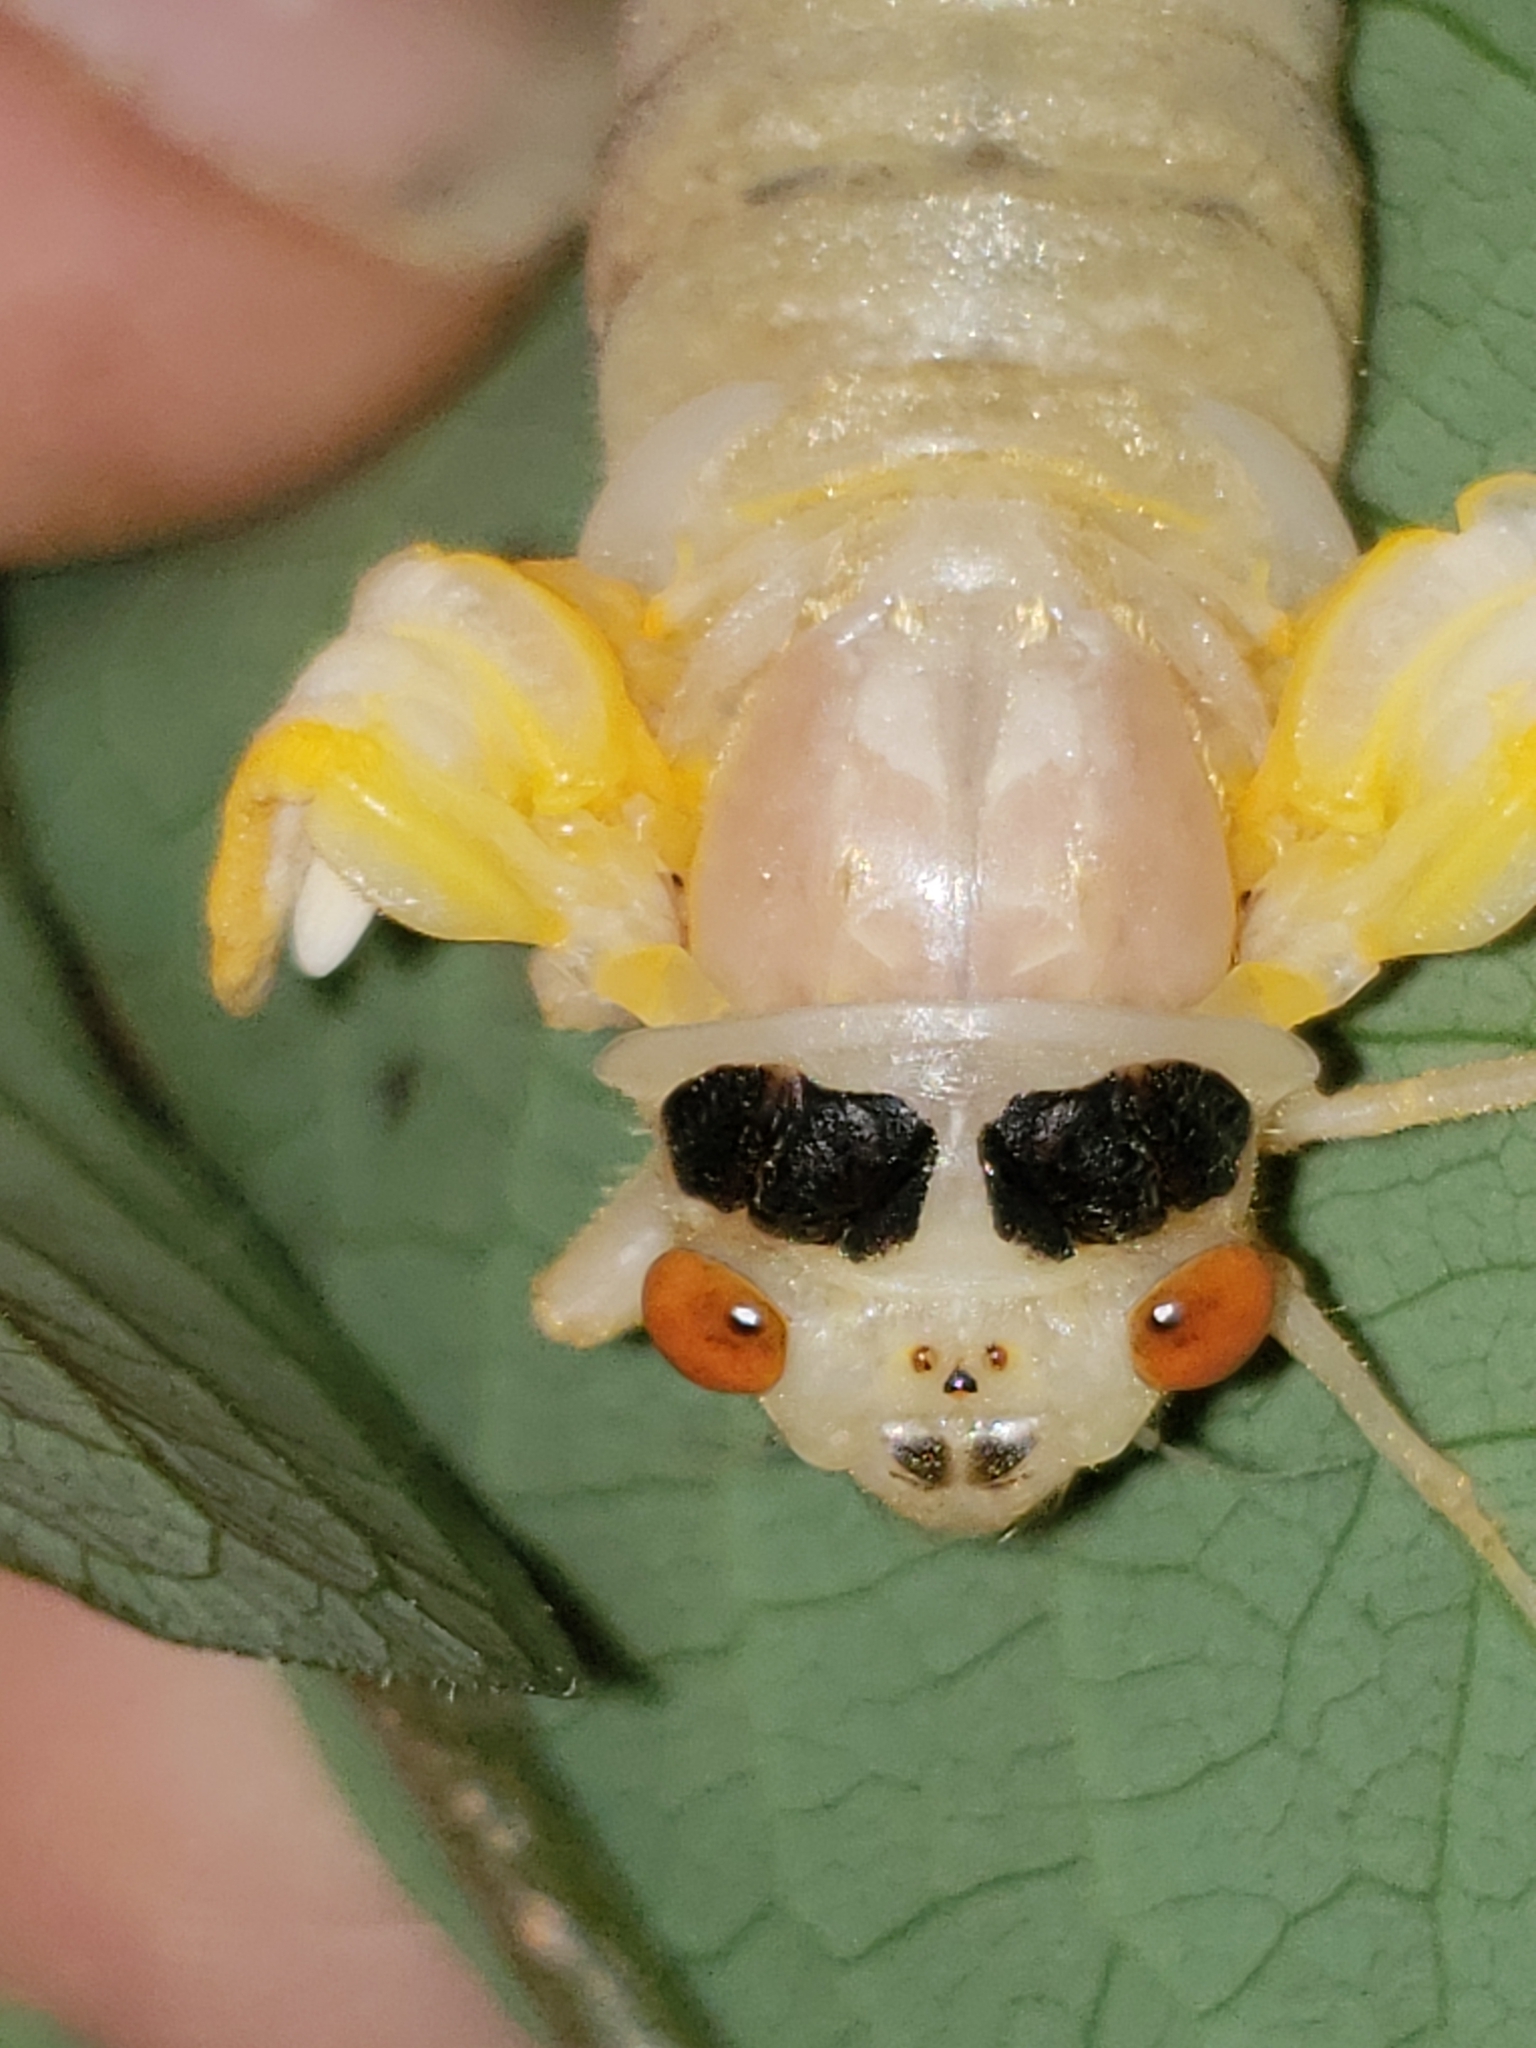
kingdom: Animalia
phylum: Arthropoda
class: Insecta
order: Hemiptera
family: Cicadidae
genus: Magicicada
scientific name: Magicicada
